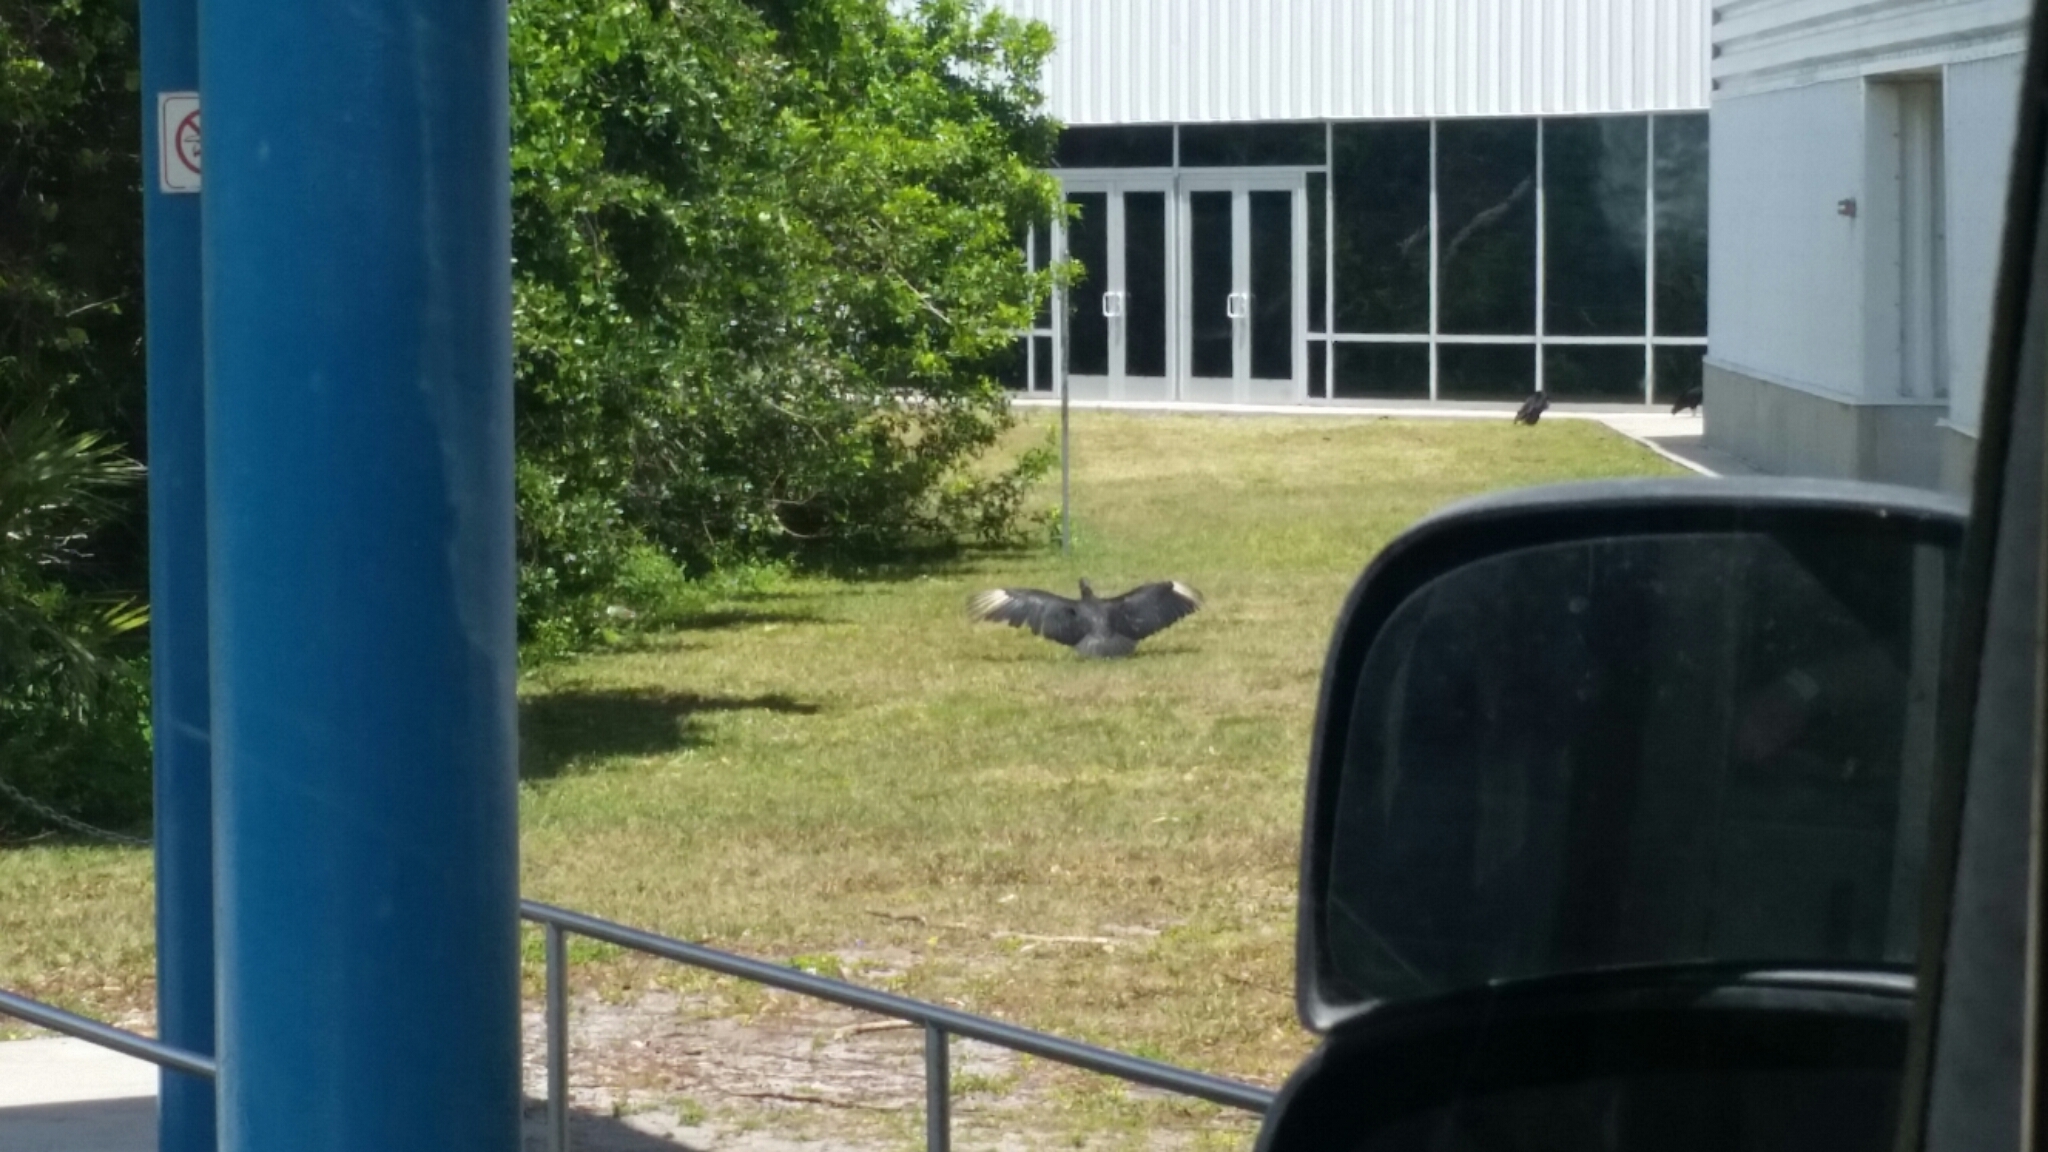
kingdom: Animalia
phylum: Chordata
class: Aves
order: Accipitriformes
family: Cathartidae
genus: Coragyps
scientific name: Coragyps atratus
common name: Black vulture
